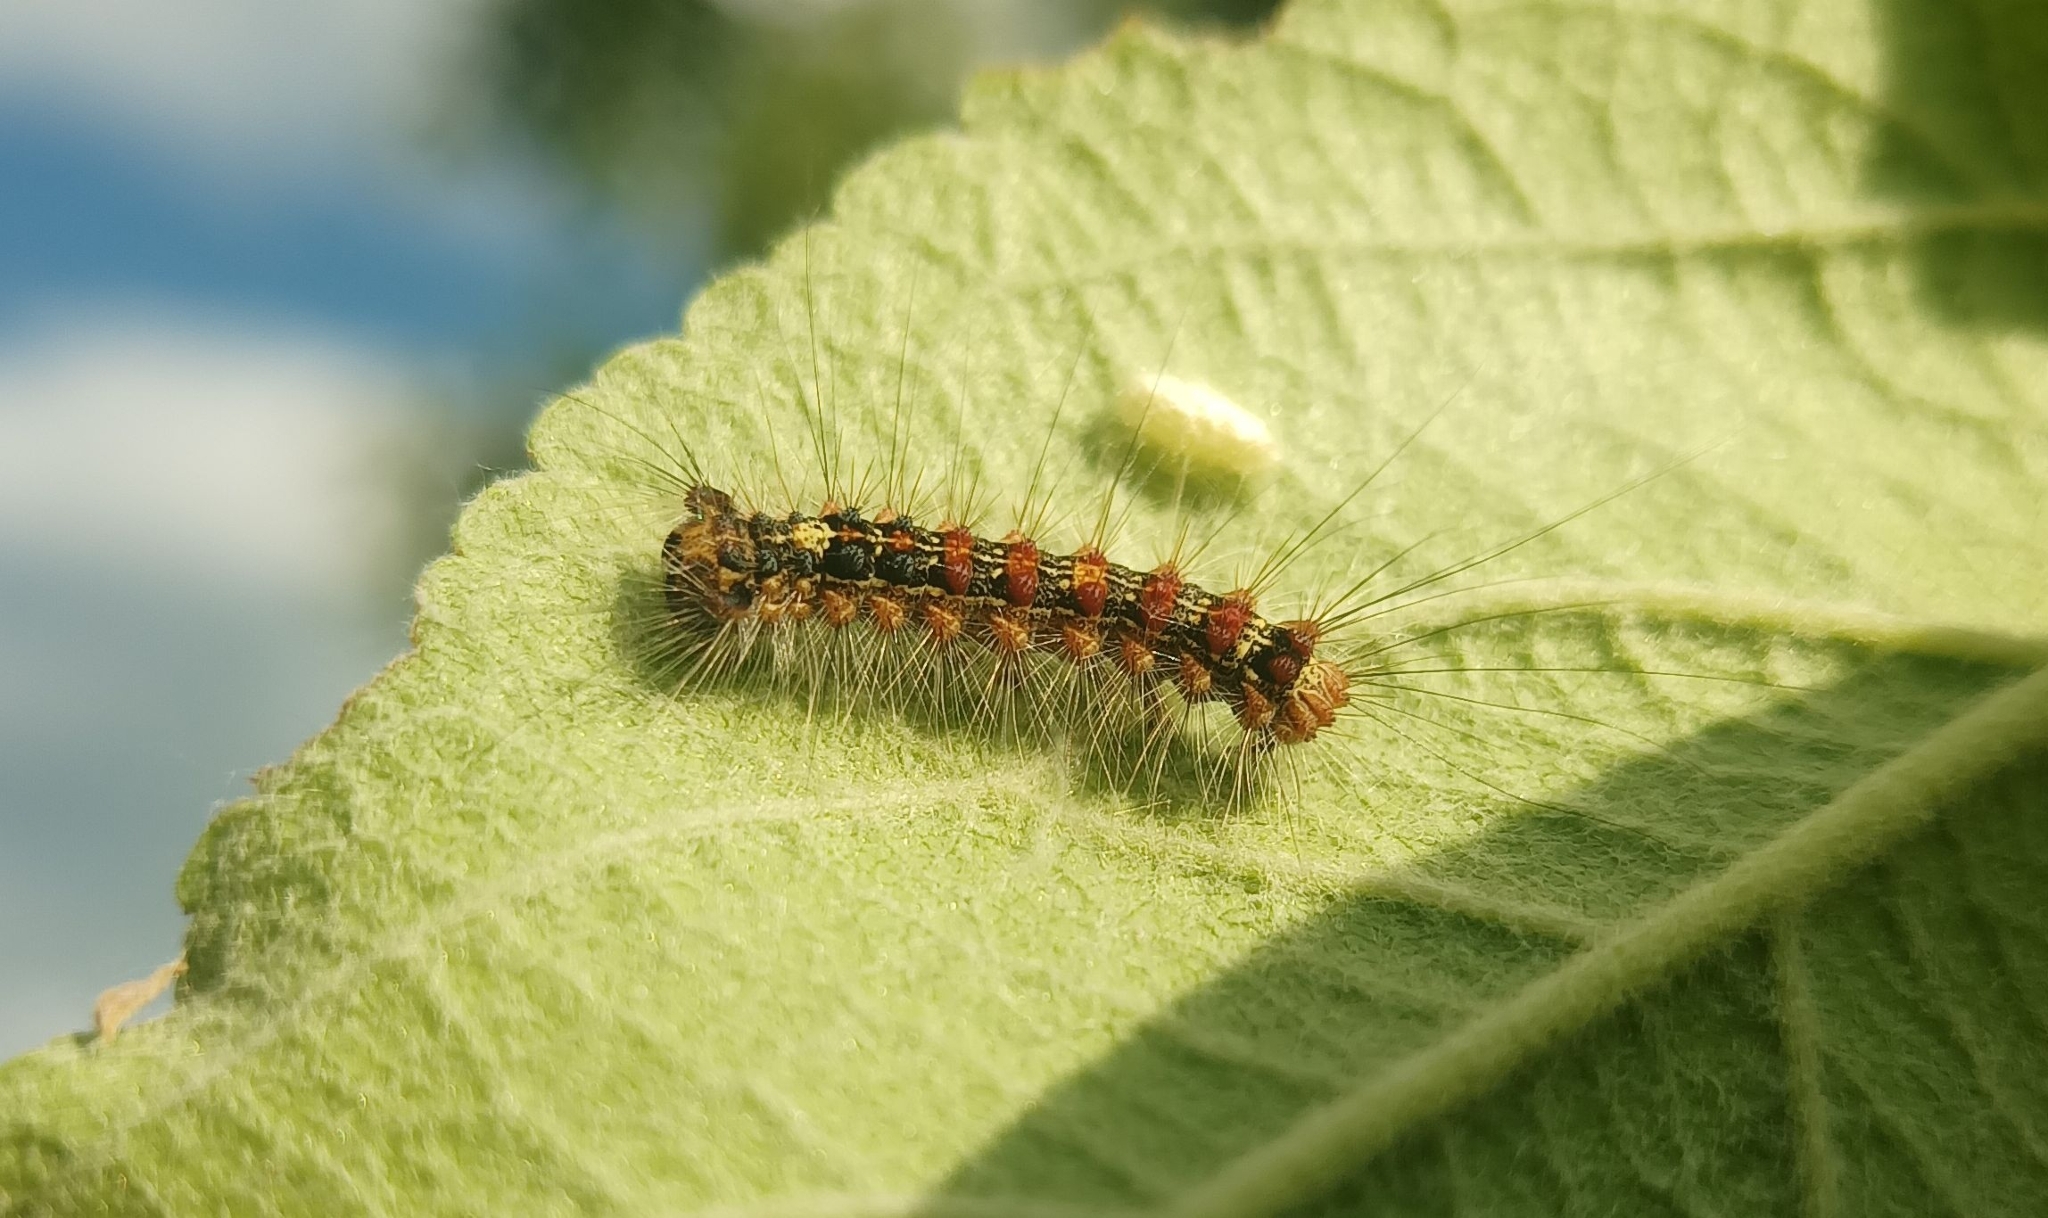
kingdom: Animalia
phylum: Arthropoda
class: Insecta
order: Lepidoptera
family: Erebidae
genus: Lymantria
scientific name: Lymantria dispar
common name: Gypsy moth
